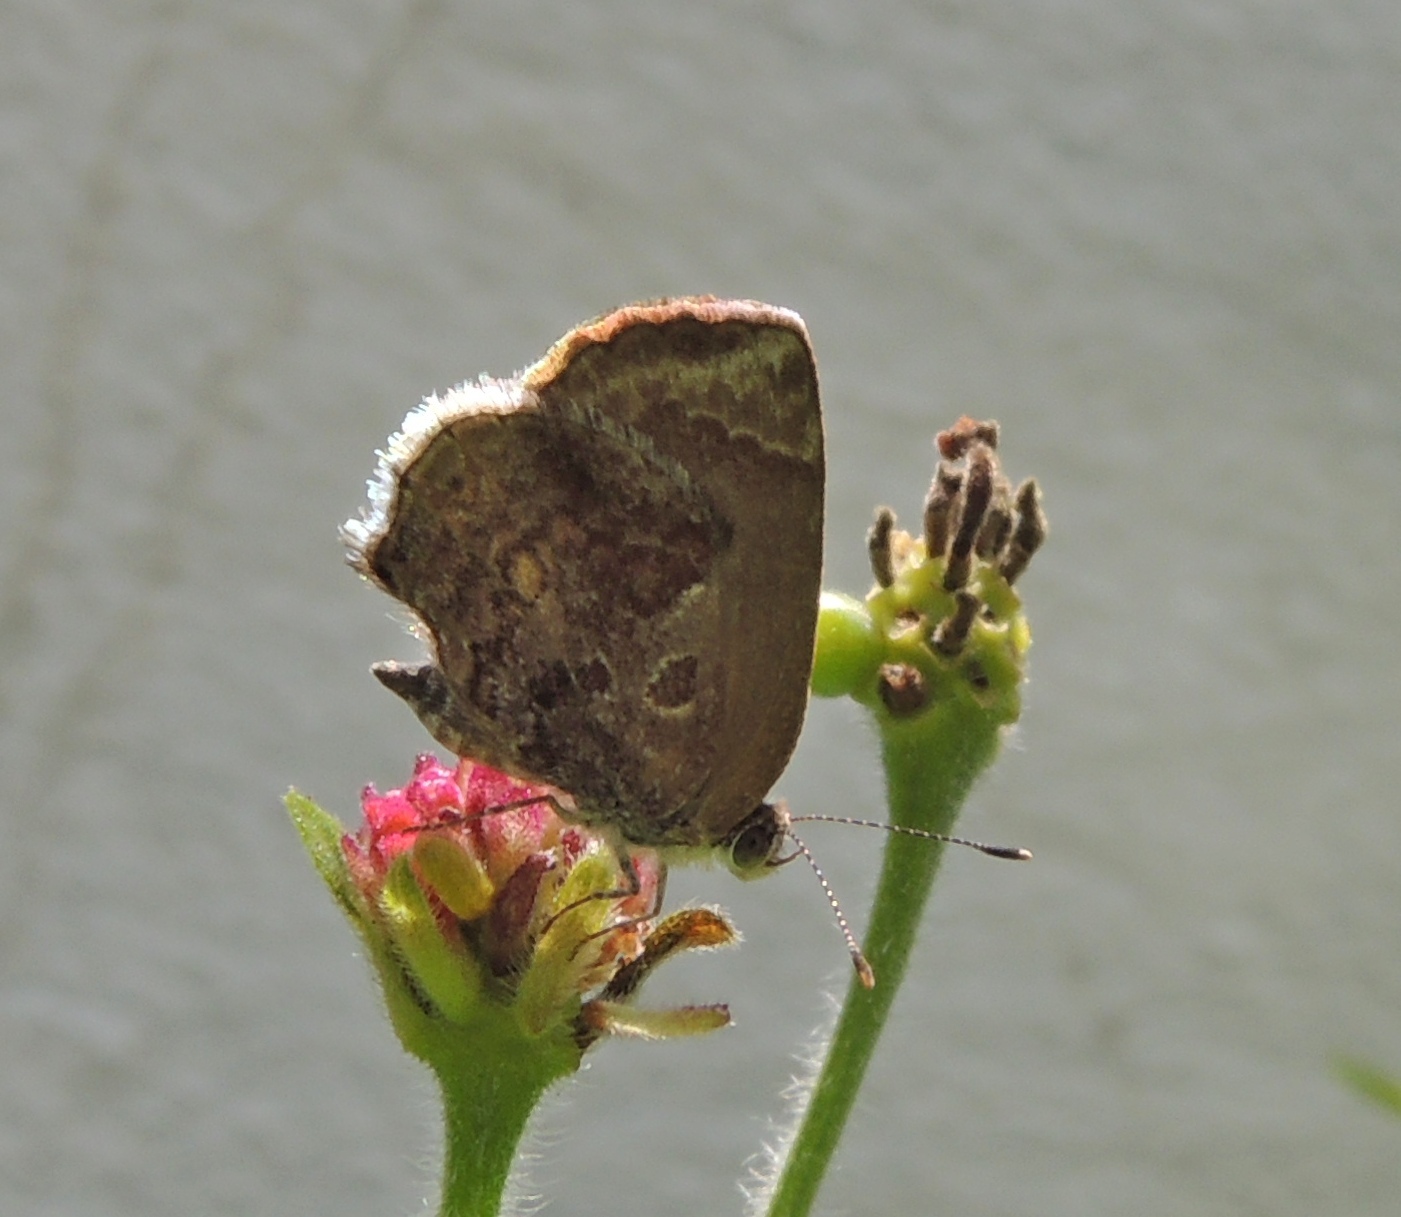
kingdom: Animalia
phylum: Arthropoda
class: Insecta
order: Lepidoptera
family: Lycaenidae
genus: Strymon
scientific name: Strymon bazochii
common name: Lantana scrub-hairstreak
